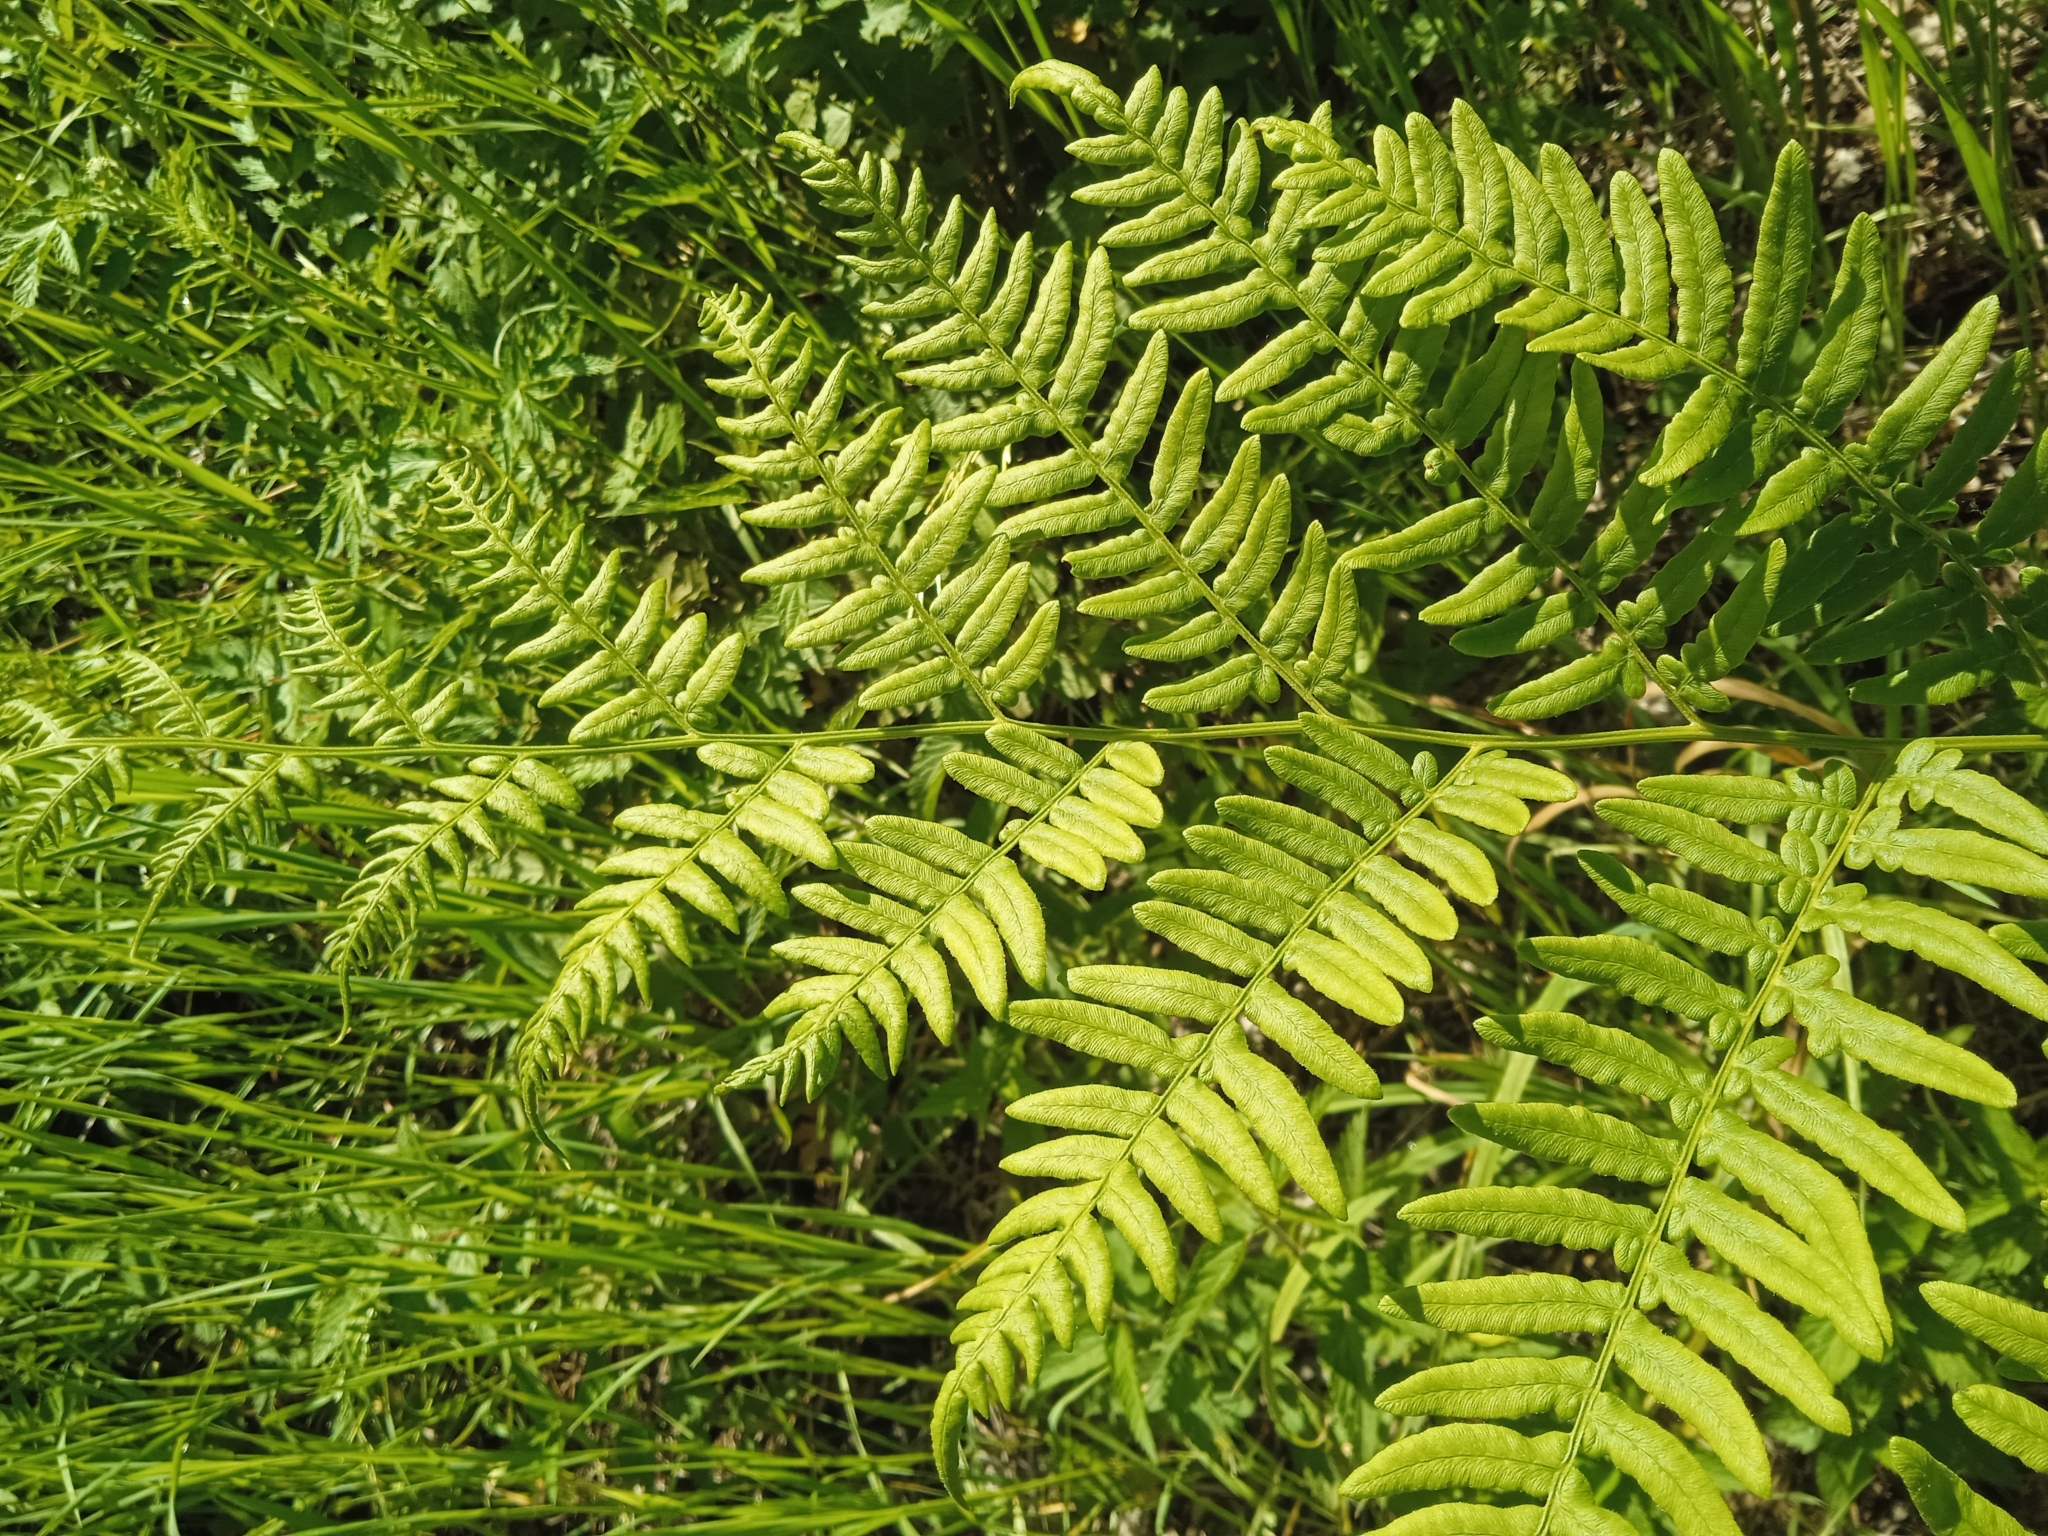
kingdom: Plantae
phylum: Tracheophyta
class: Polypodiopsida
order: Polypodiales
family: Dennstaedtiaceae
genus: Pteridium
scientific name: Pteridium aquilinum
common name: Bracken
